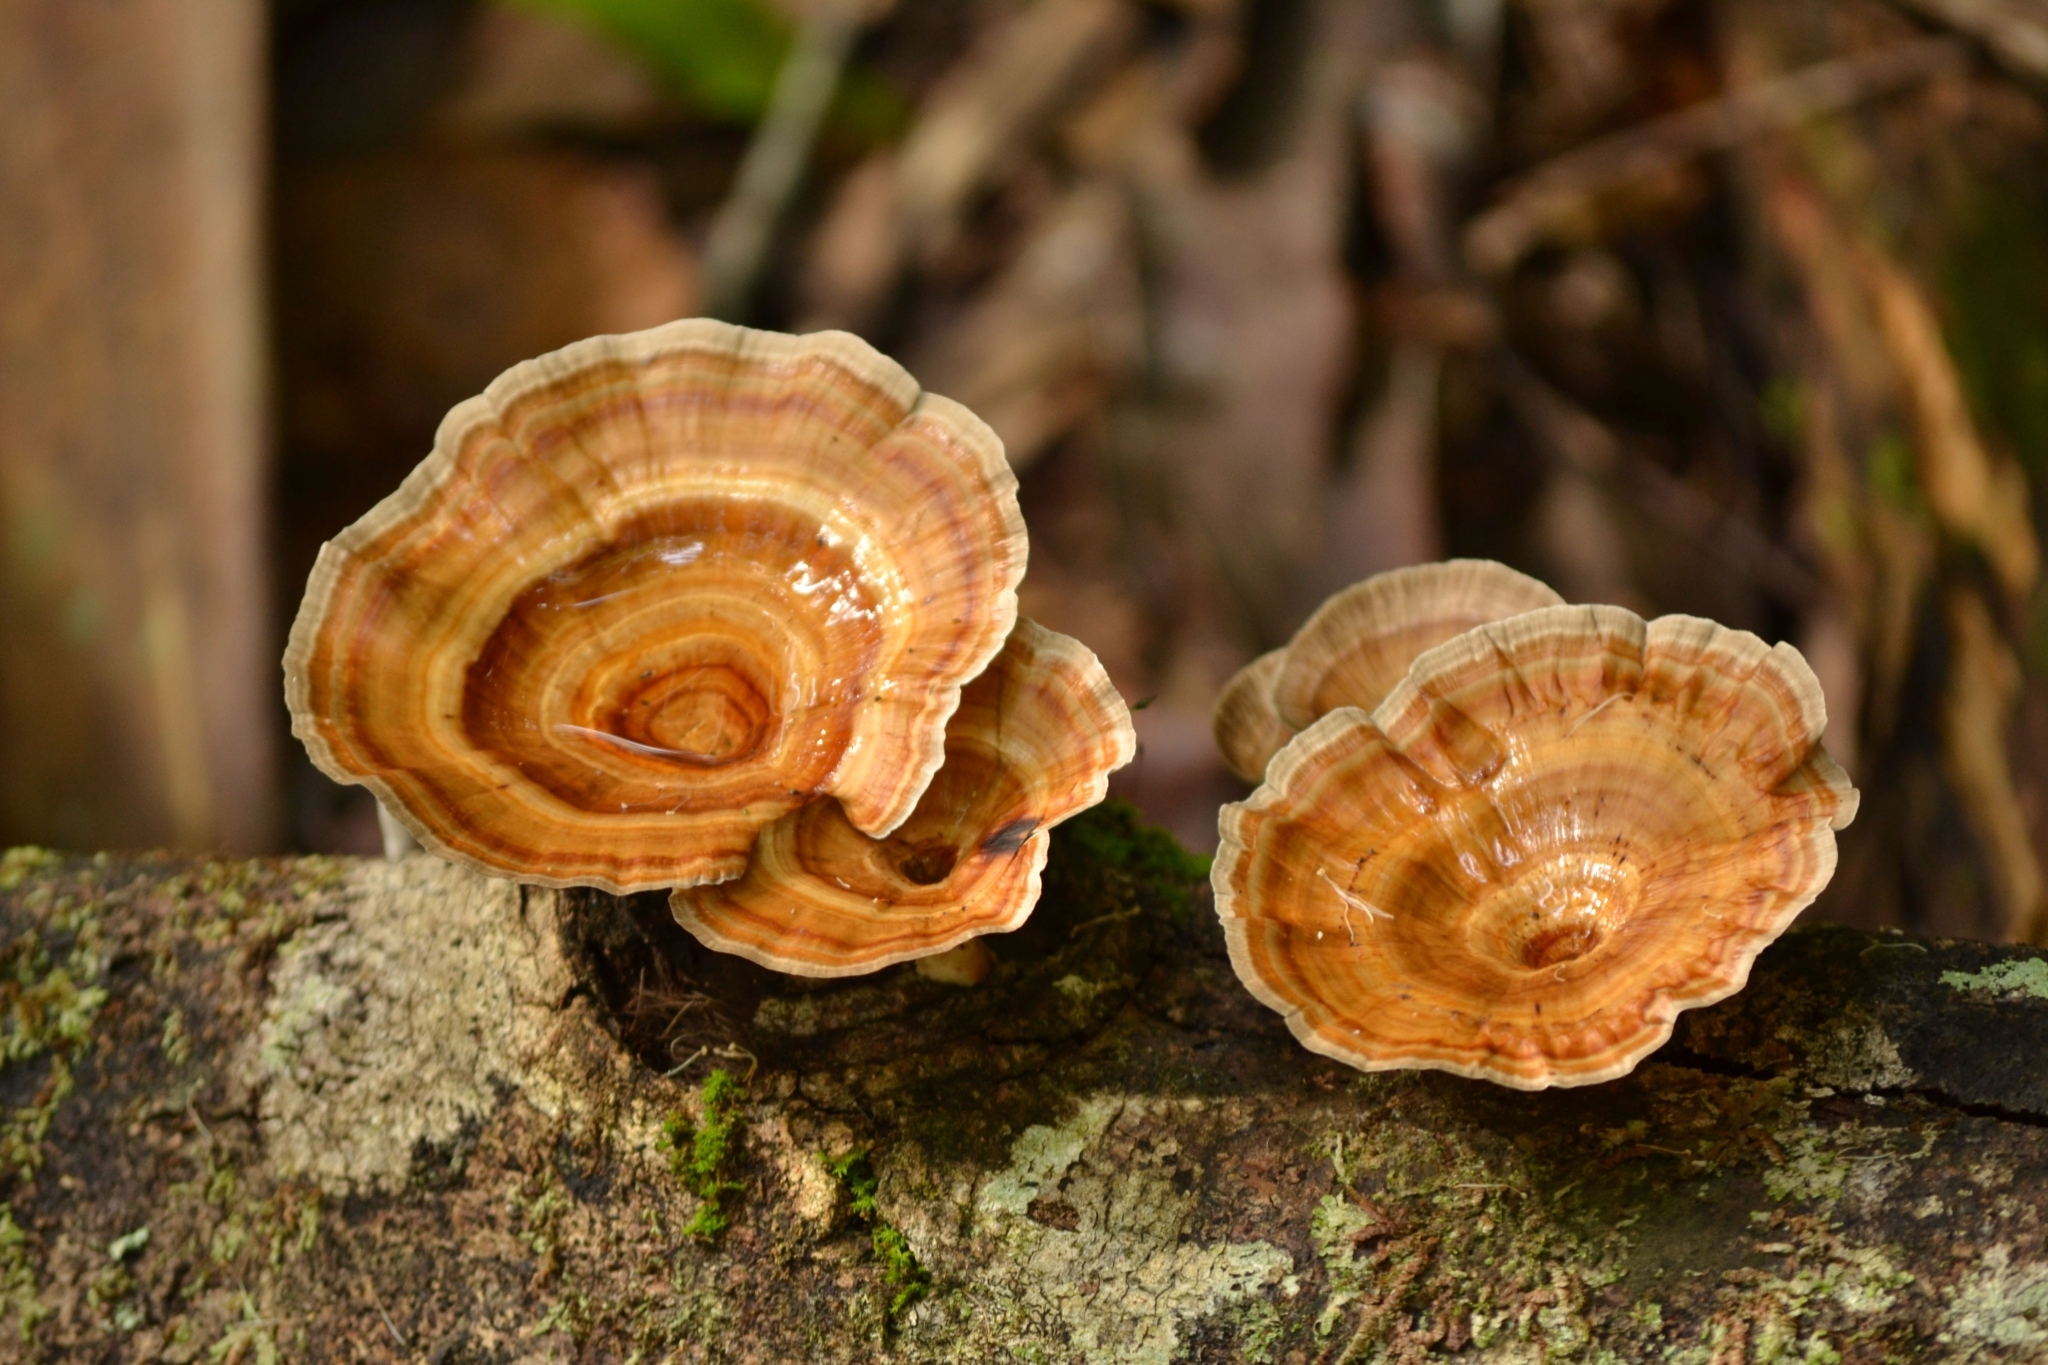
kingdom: Fungi
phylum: Basidiomycota
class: Agaricomycetes
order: Polyporales
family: Polyporaceae
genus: Microporus
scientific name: Microporus xanthopus
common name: Yellow-stemmed micropore
